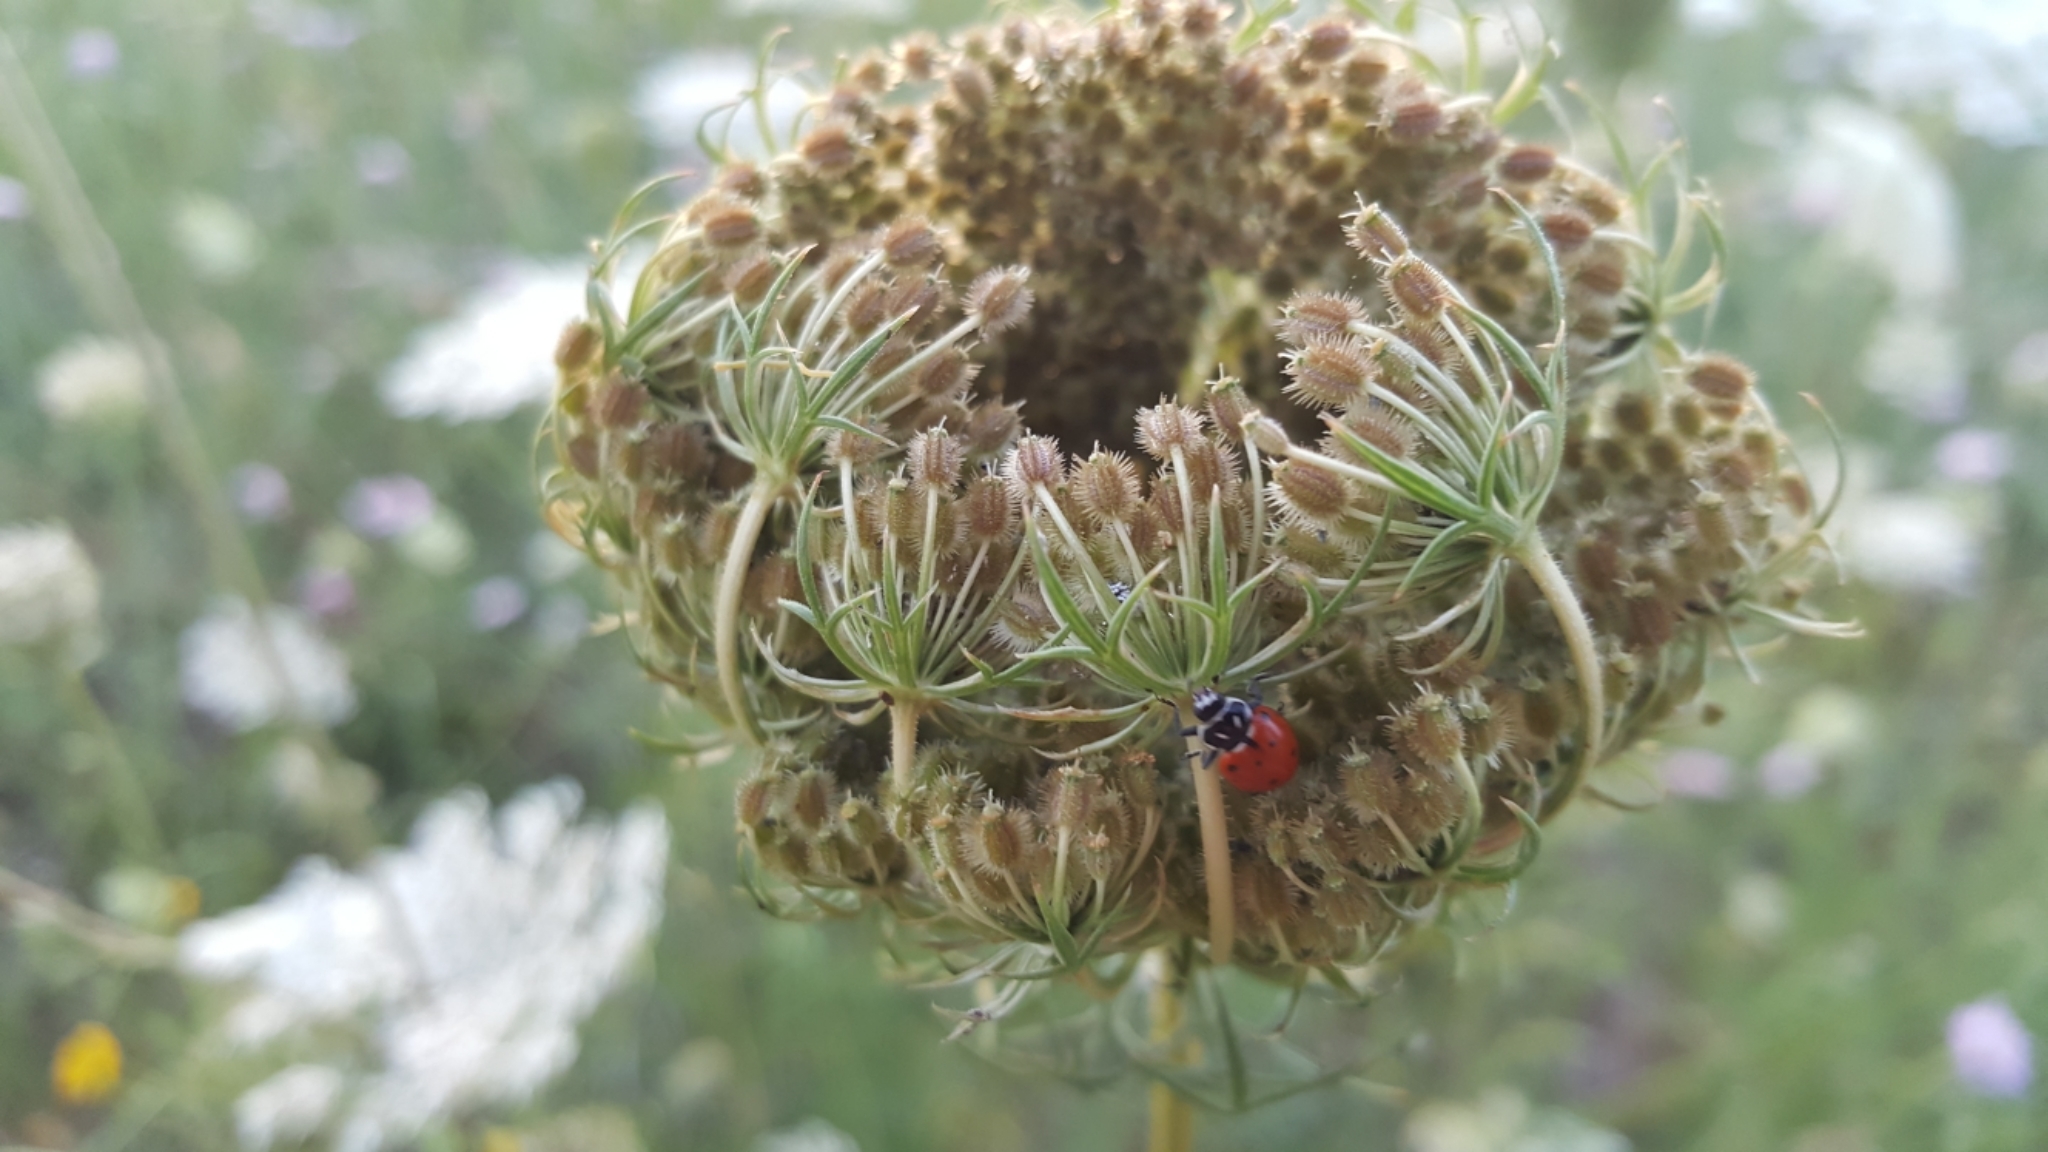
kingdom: Animalia
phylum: Arthropoda
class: Insecta
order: Coleoptera
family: Coccinellidae
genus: Hippodamia
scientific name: Hippodamia convergens
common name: Convergent lady beetle
